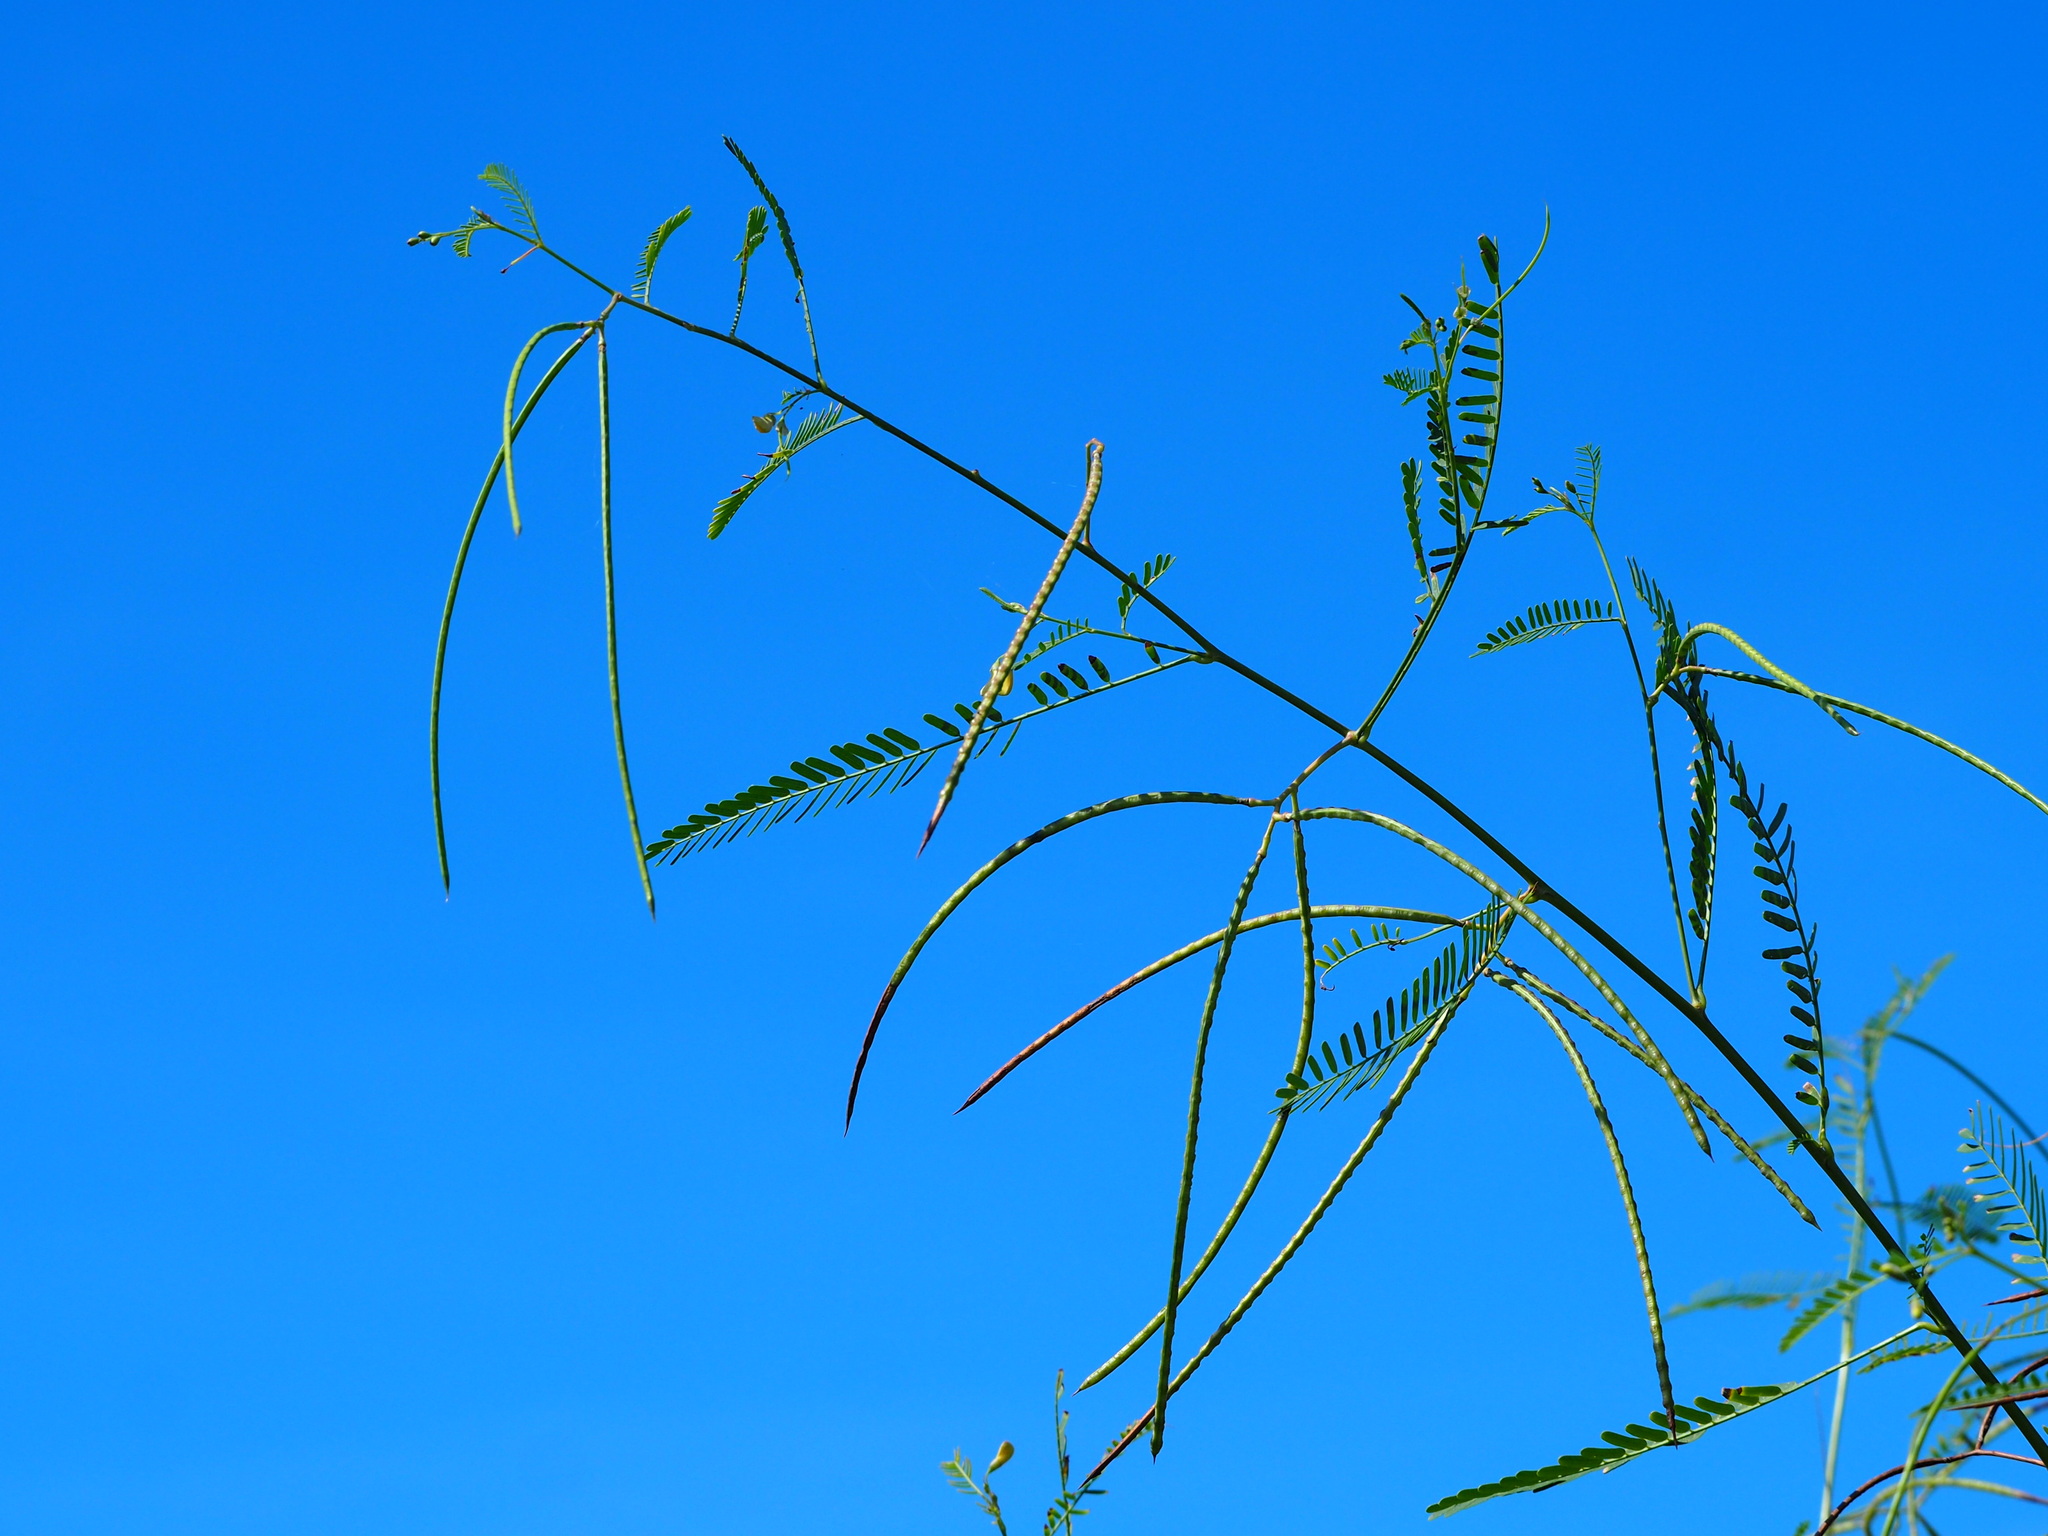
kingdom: Plantae
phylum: Tracheophyta
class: Magnoliopsida
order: Fabales
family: Fabaceae
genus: Sesbania
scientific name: Sesbania cannabina
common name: Canicha
